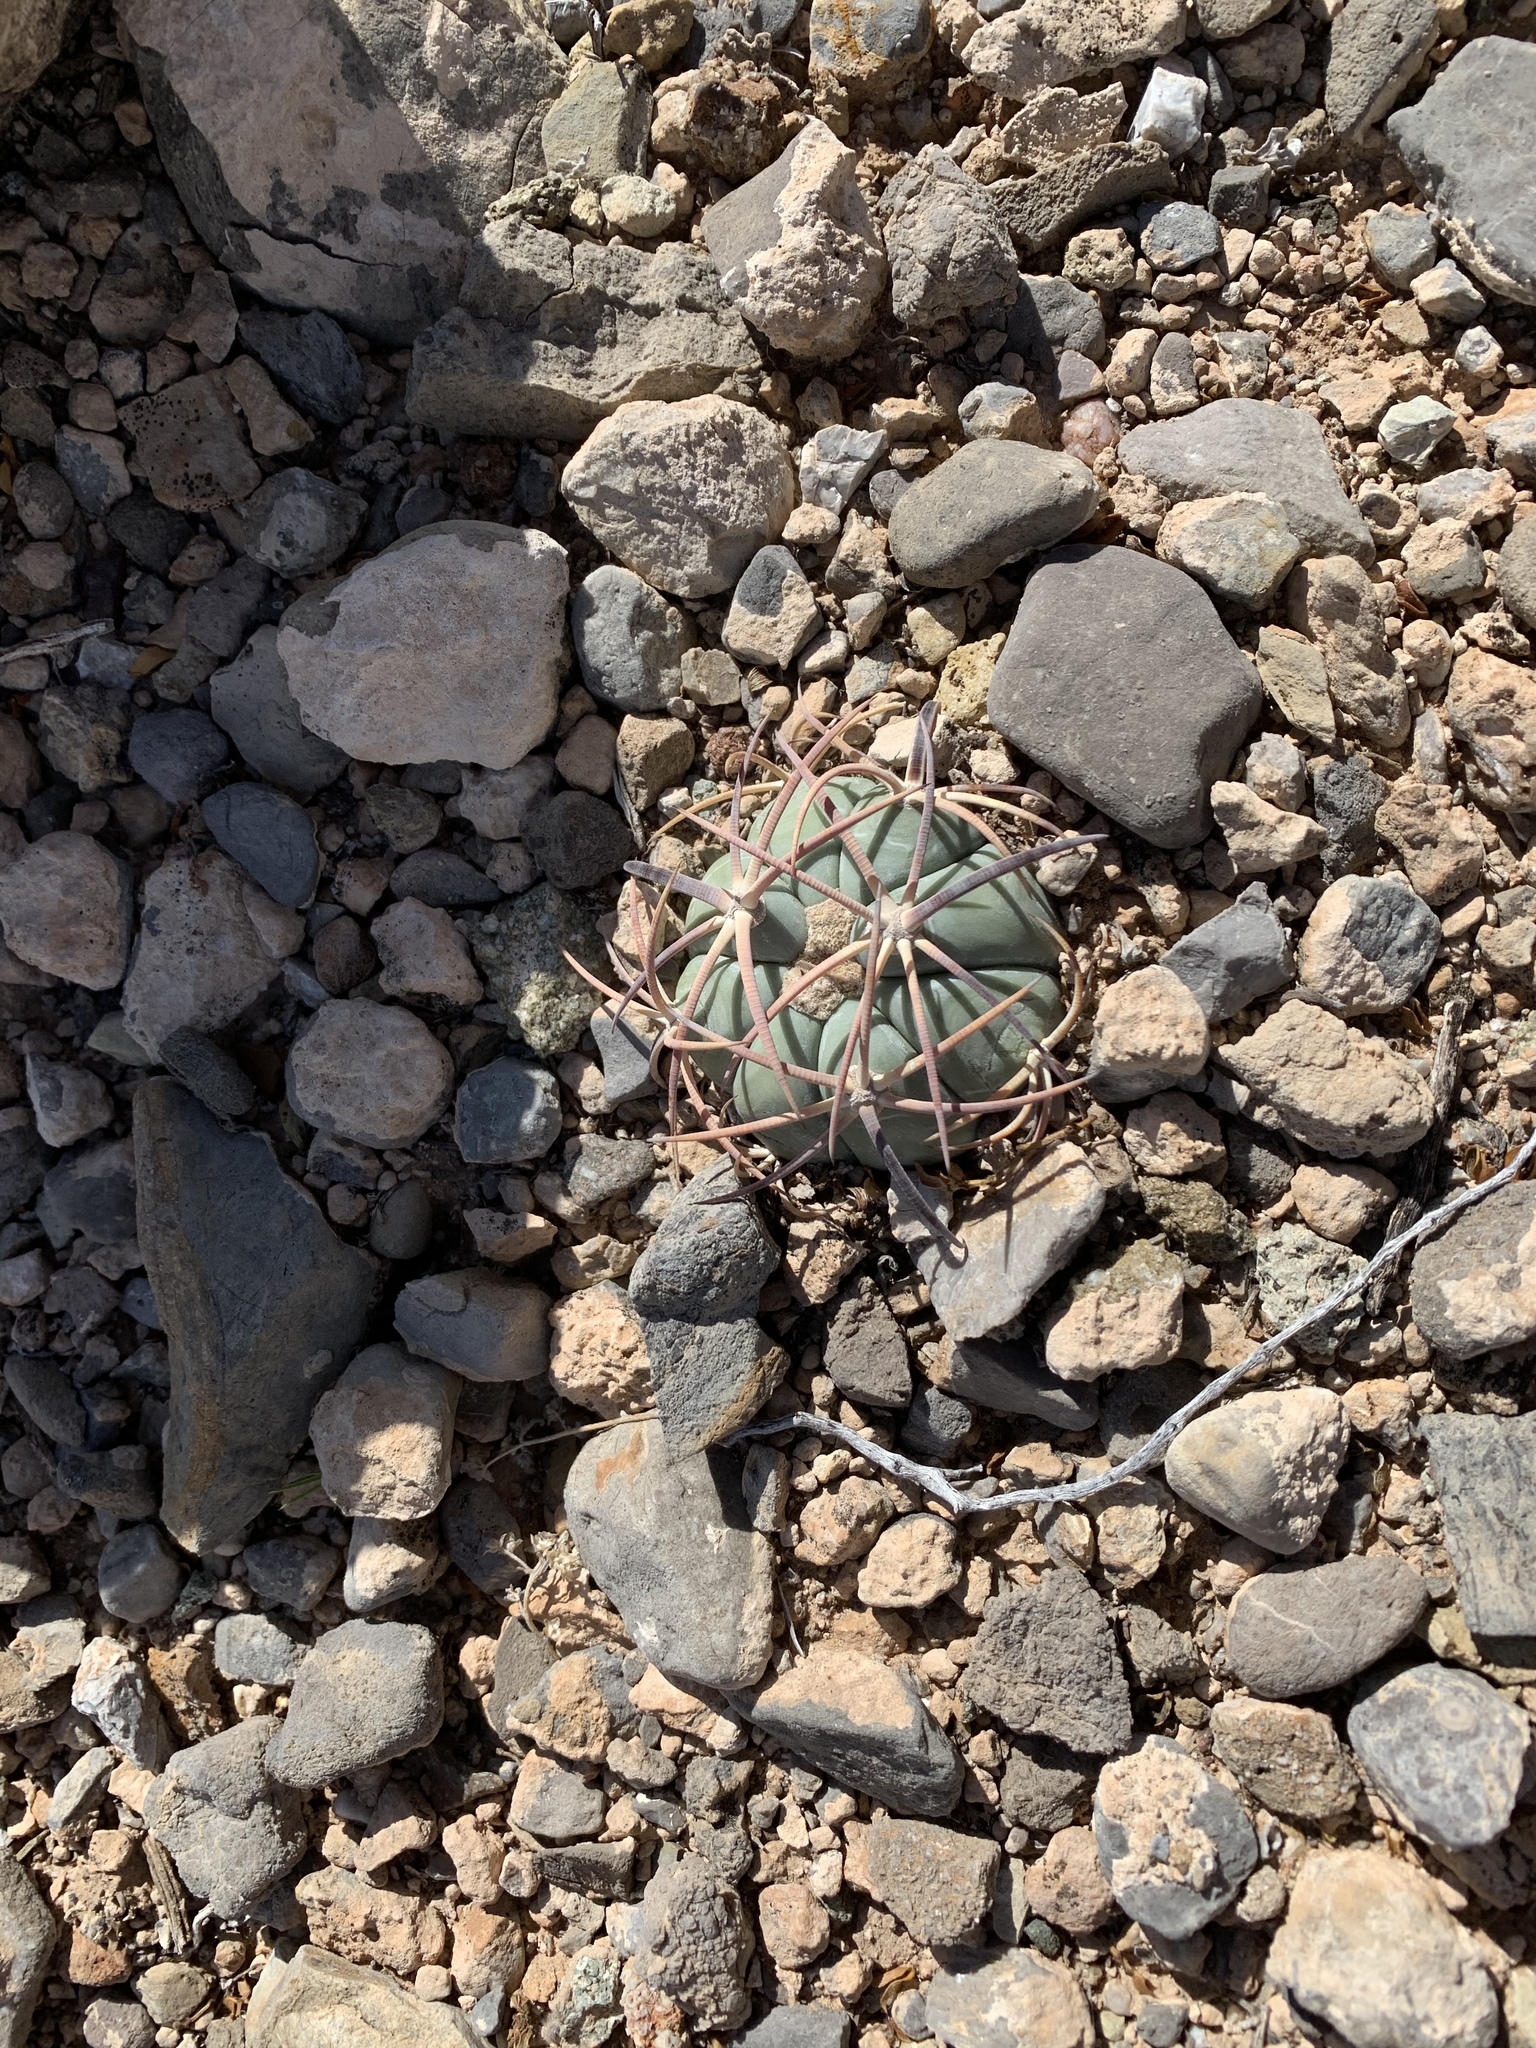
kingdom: Plantae
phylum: Tracheophyta
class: Magnoliopsida
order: Caryophyllales
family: Cactaceae
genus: Echinocactus
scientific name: Echinocactus horizonthalonius
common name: Devilshead
